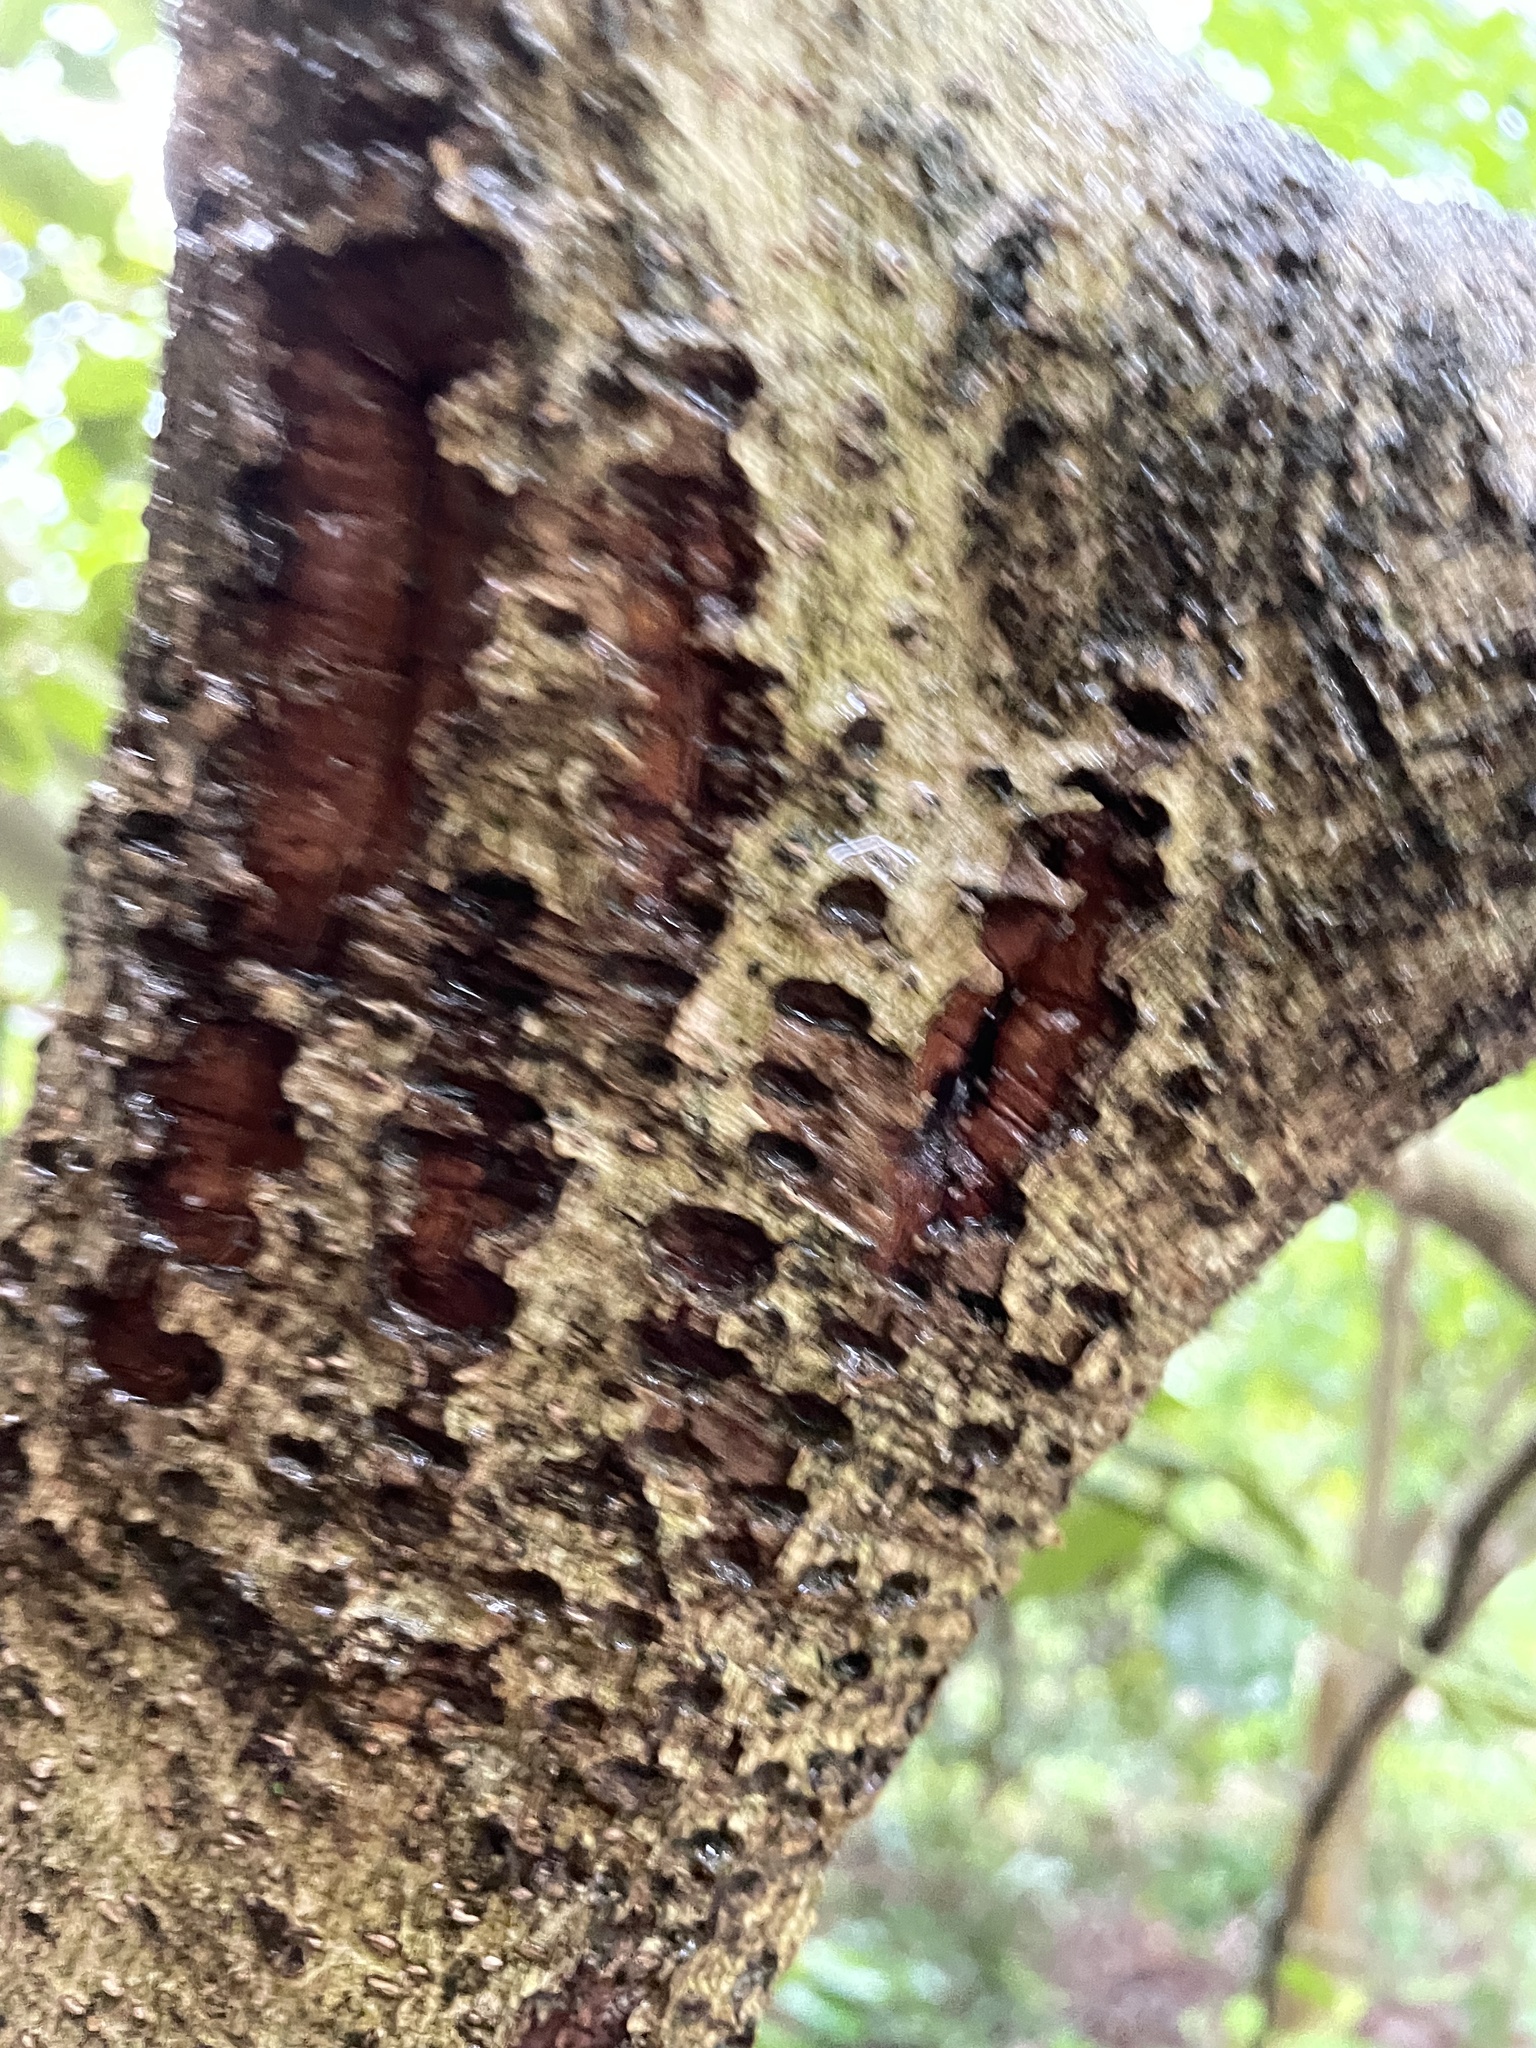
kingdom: Animalia
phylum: Chordata
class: Aves
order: Piciformes
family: Picidae
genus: Sphyrapicus
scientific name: Sphyrapicus varius
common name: Yellow-bellied sapsucker
